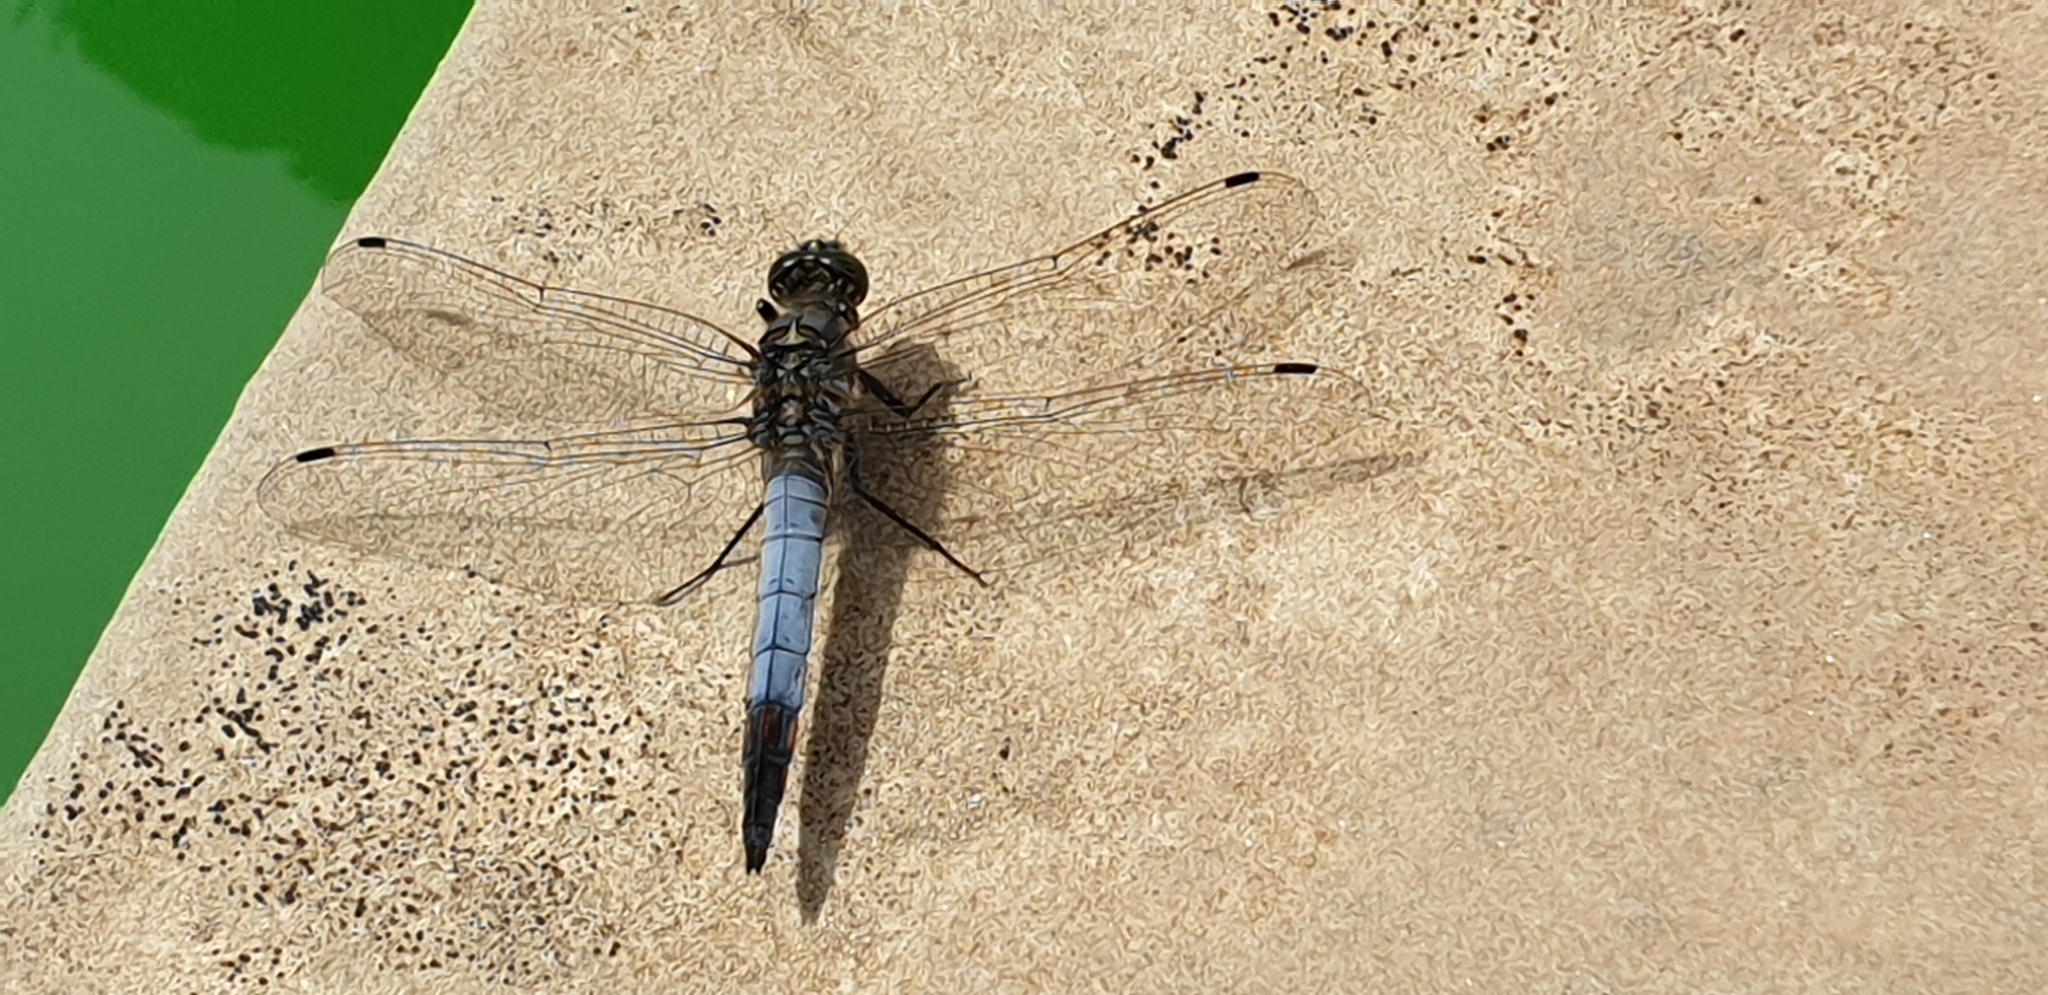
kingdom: Animalia
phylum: Arthropoda
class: Insecta
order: Odonata
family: Libellulidae
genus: Orthetrum
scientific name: Orthetrum cancellatum
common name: Black-tailed skimmer
